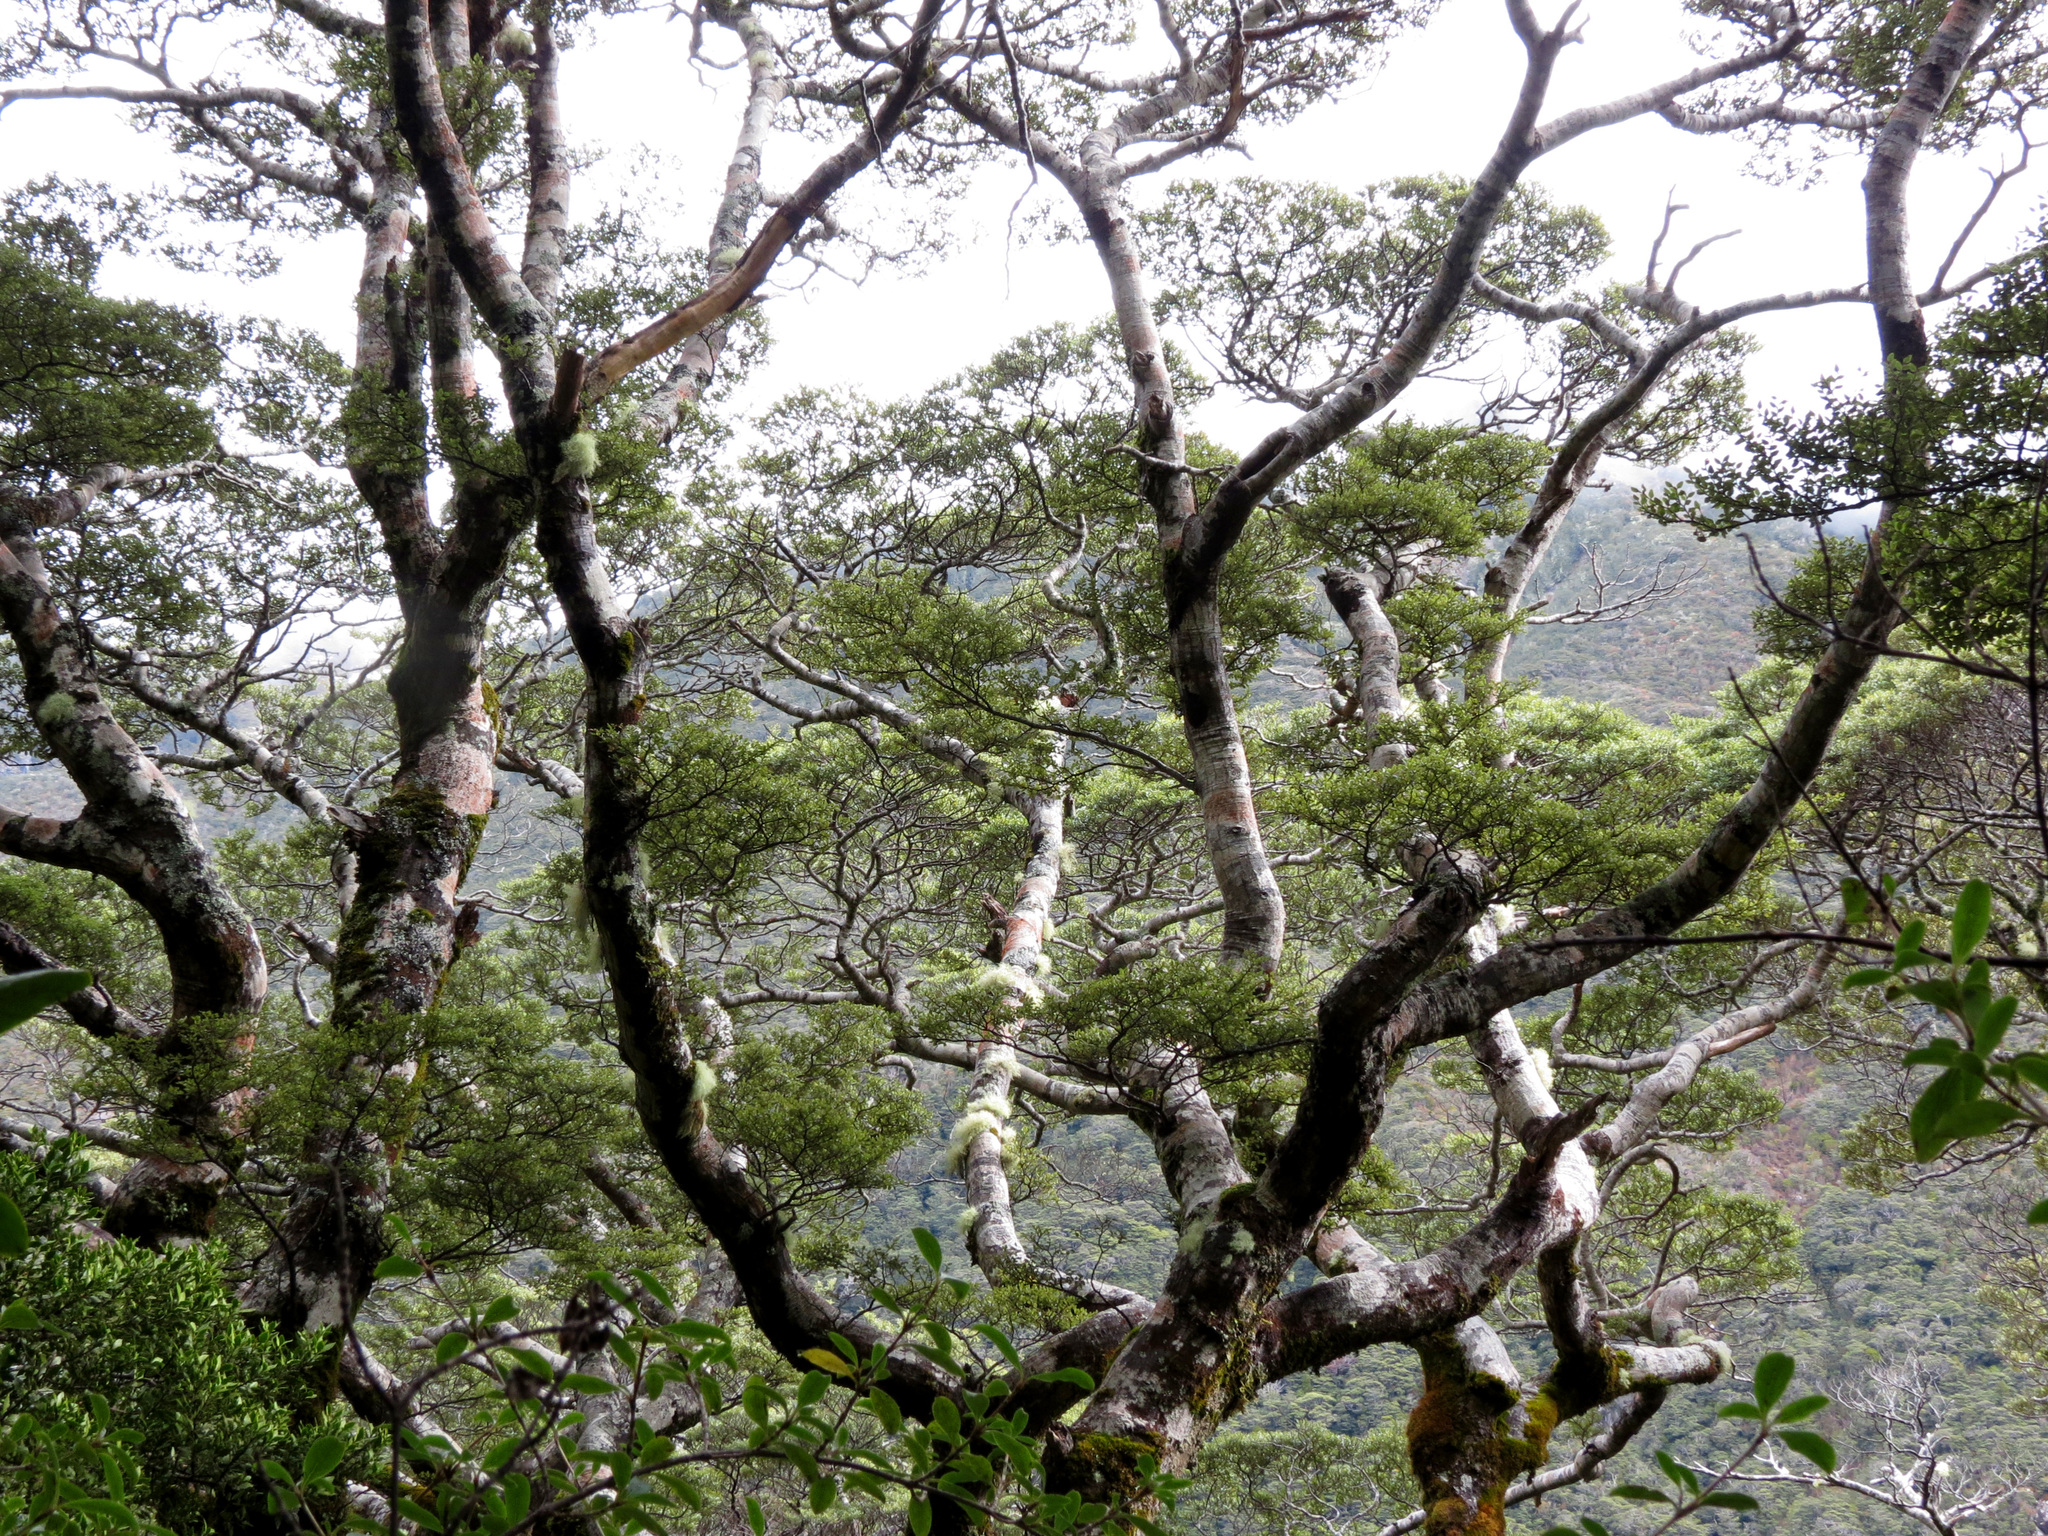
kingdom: Plantae
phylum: Tracheophyta
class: Magnoliopsida
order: Fagales
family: Nothofagaceae
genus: Nothofagus
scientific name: Nothofagus cliffortioides
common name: Mountain beech
